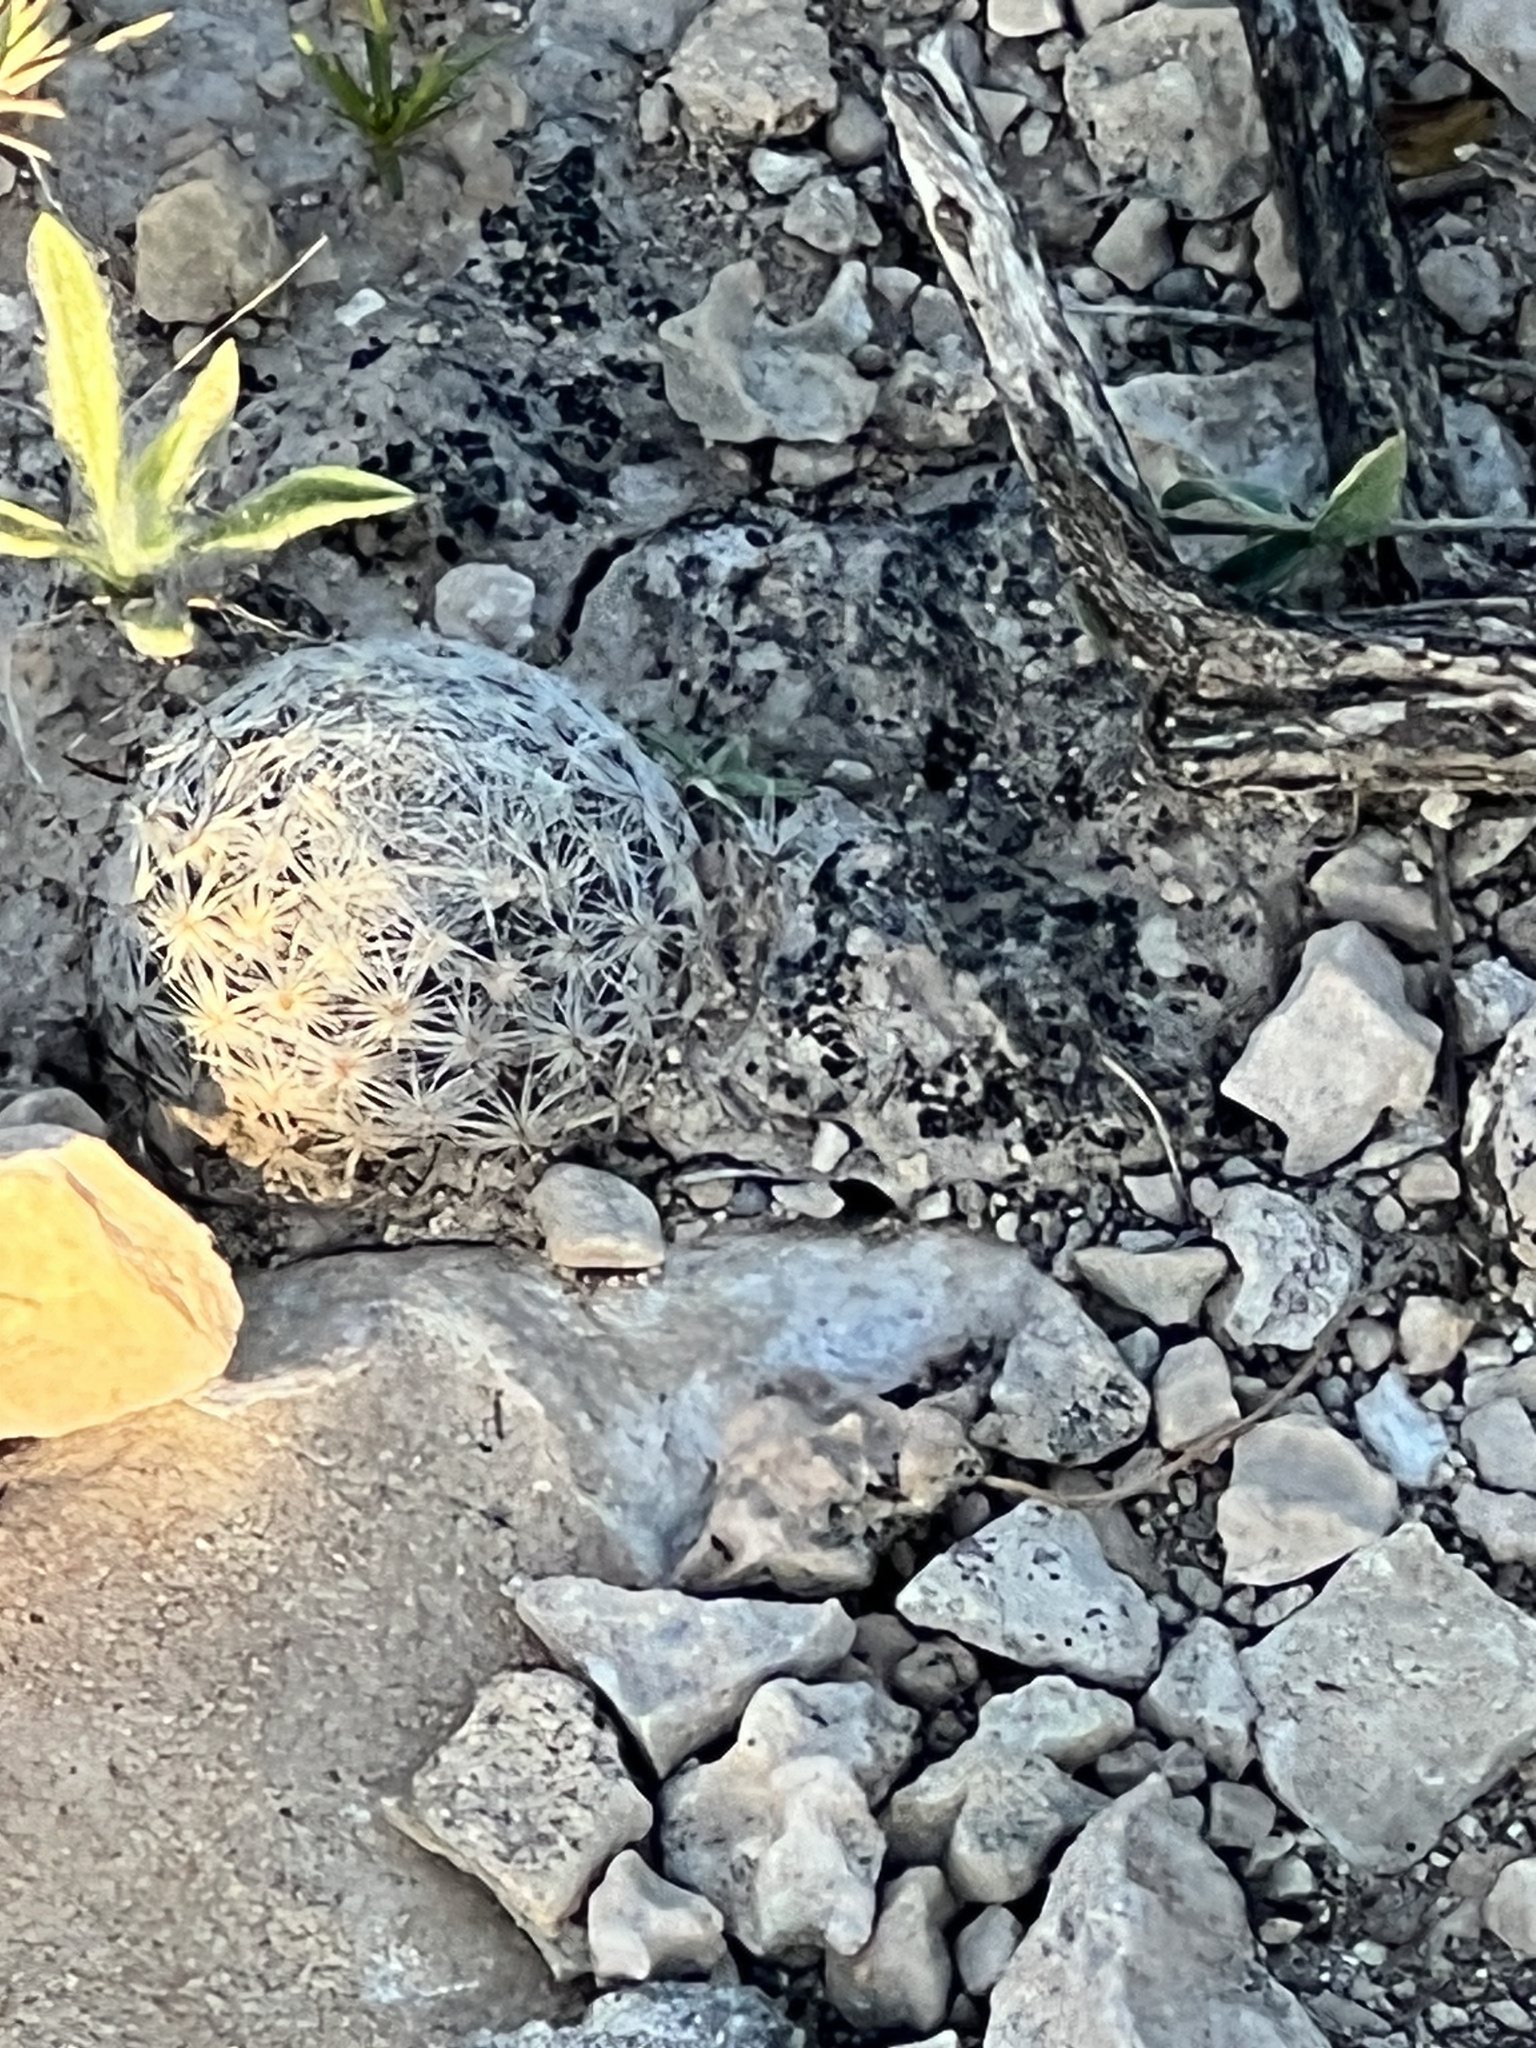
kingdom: Plantae
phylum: Tracheophyta
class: Magnoliopsida
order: Caryophyllales
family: Cactaceae
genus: Mammillaria
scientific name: Mammillaria lasiacantha
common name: Lace-spine nipple cactus
